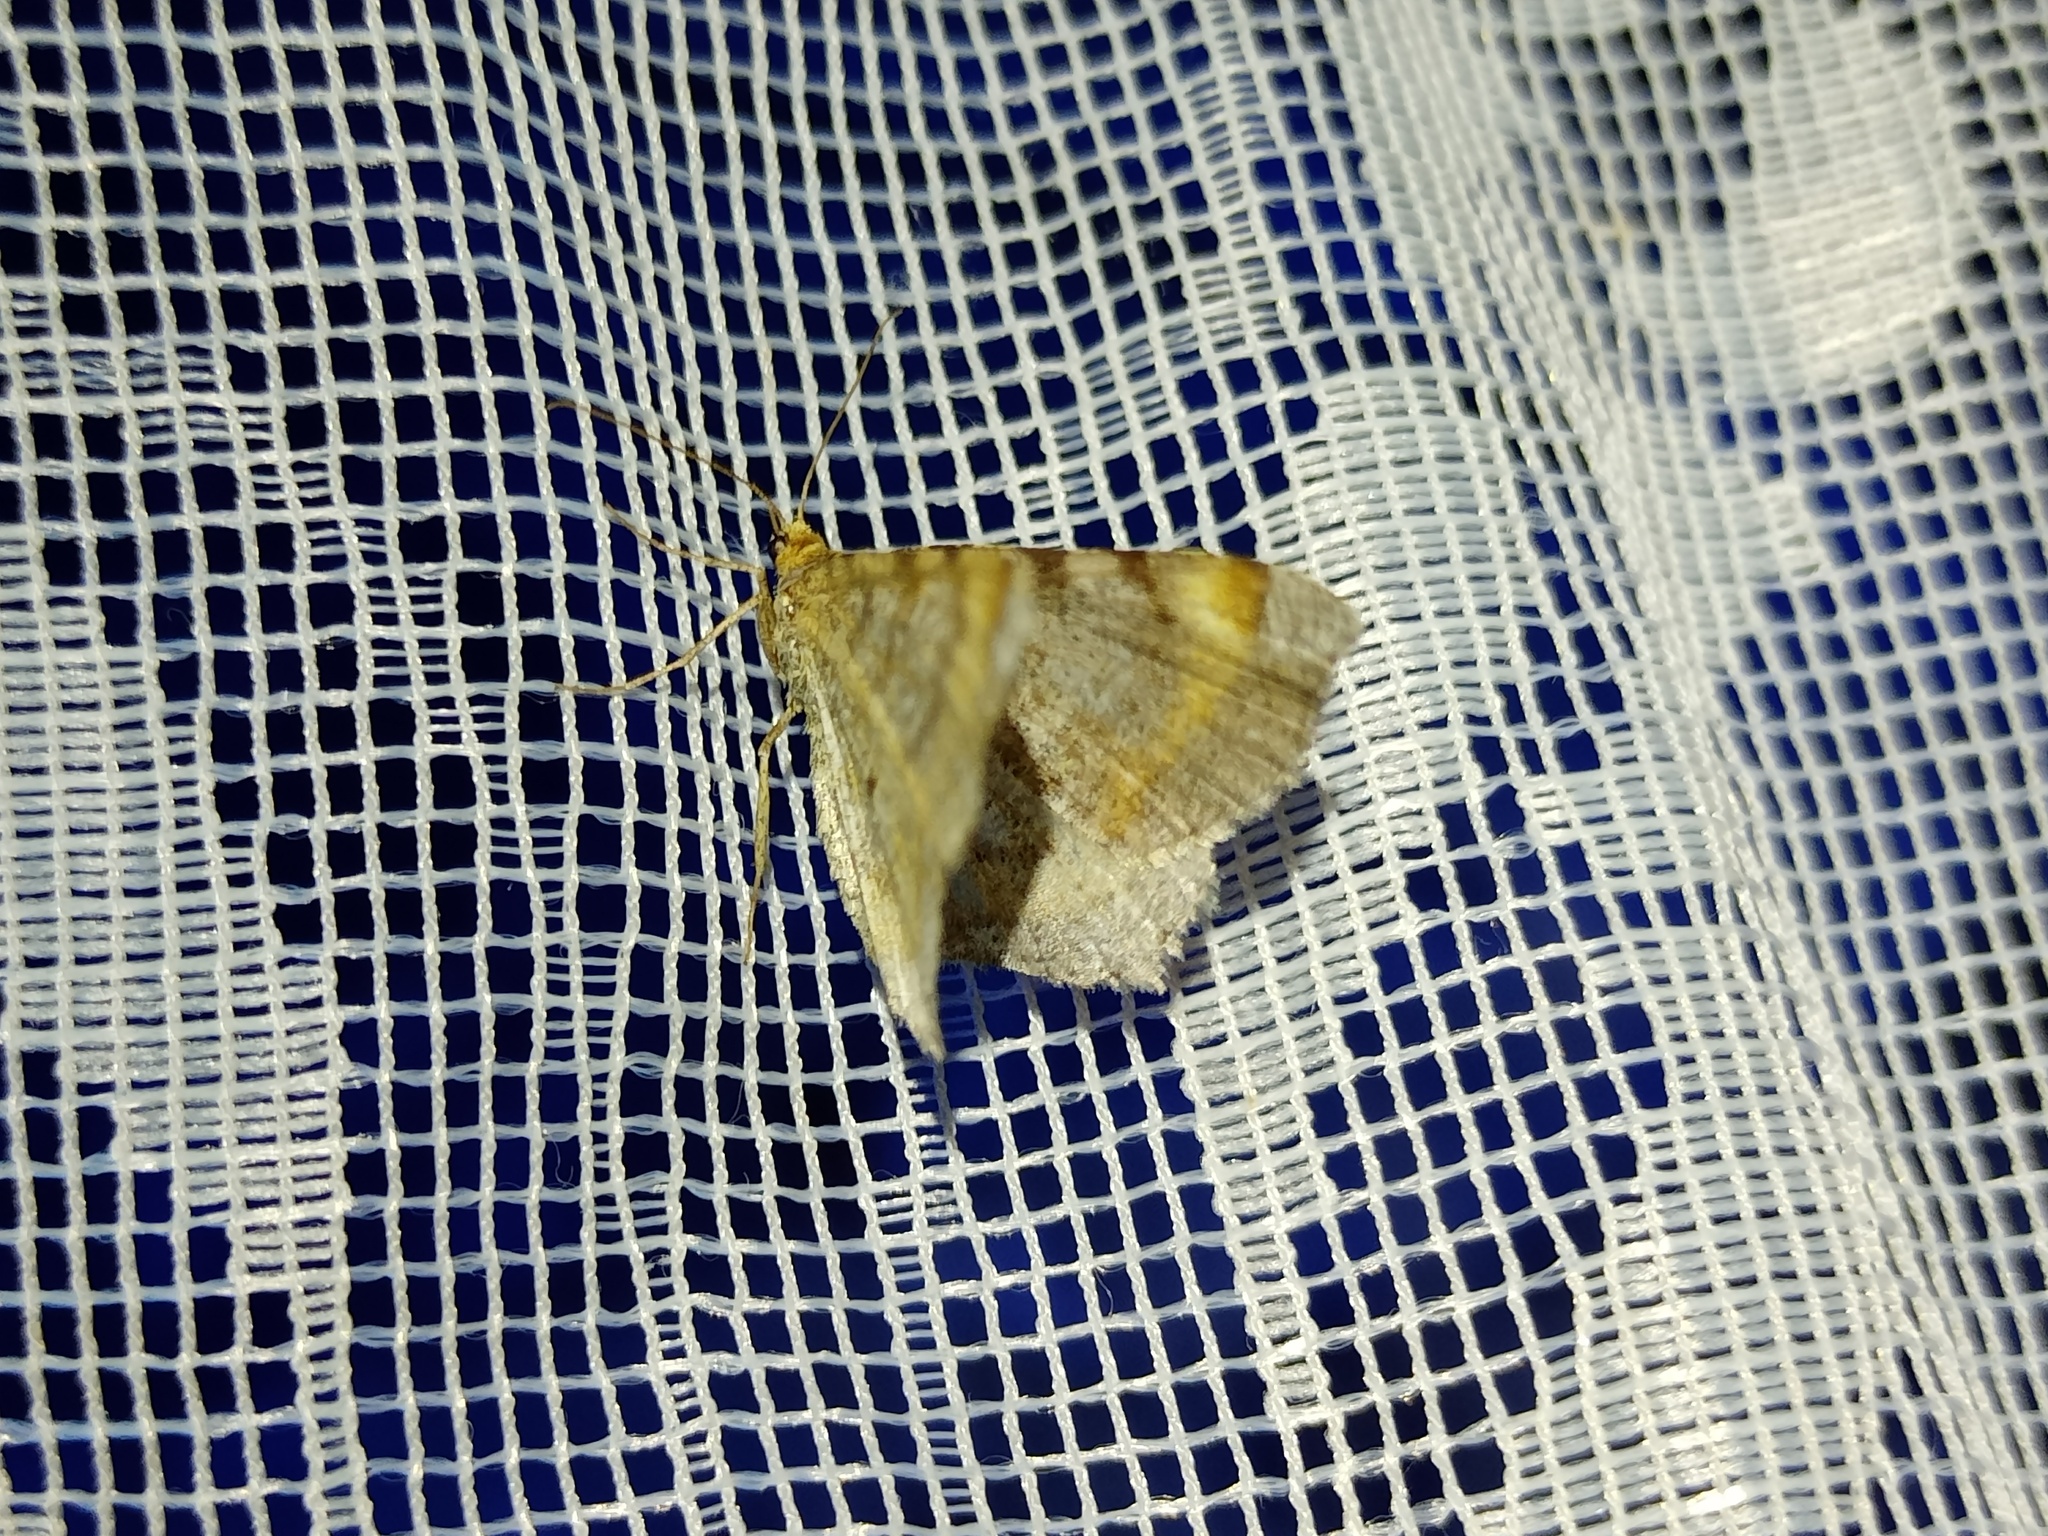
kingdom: Animalia
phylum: Arthropoda
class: Insecta
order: Lepidoptera
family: Geometridae
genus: Macaria
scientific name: Macaria liturata
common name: Tawny-barred angle
